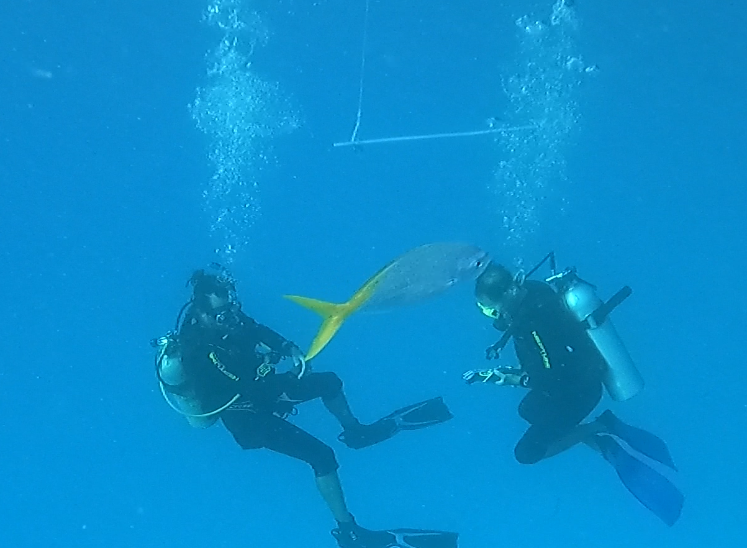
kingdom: Animalia
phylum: Chordata
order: Perciformes
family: Caesionidae
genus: Caesio
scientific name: Caesio cuning
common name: Red-bellied fusilier
